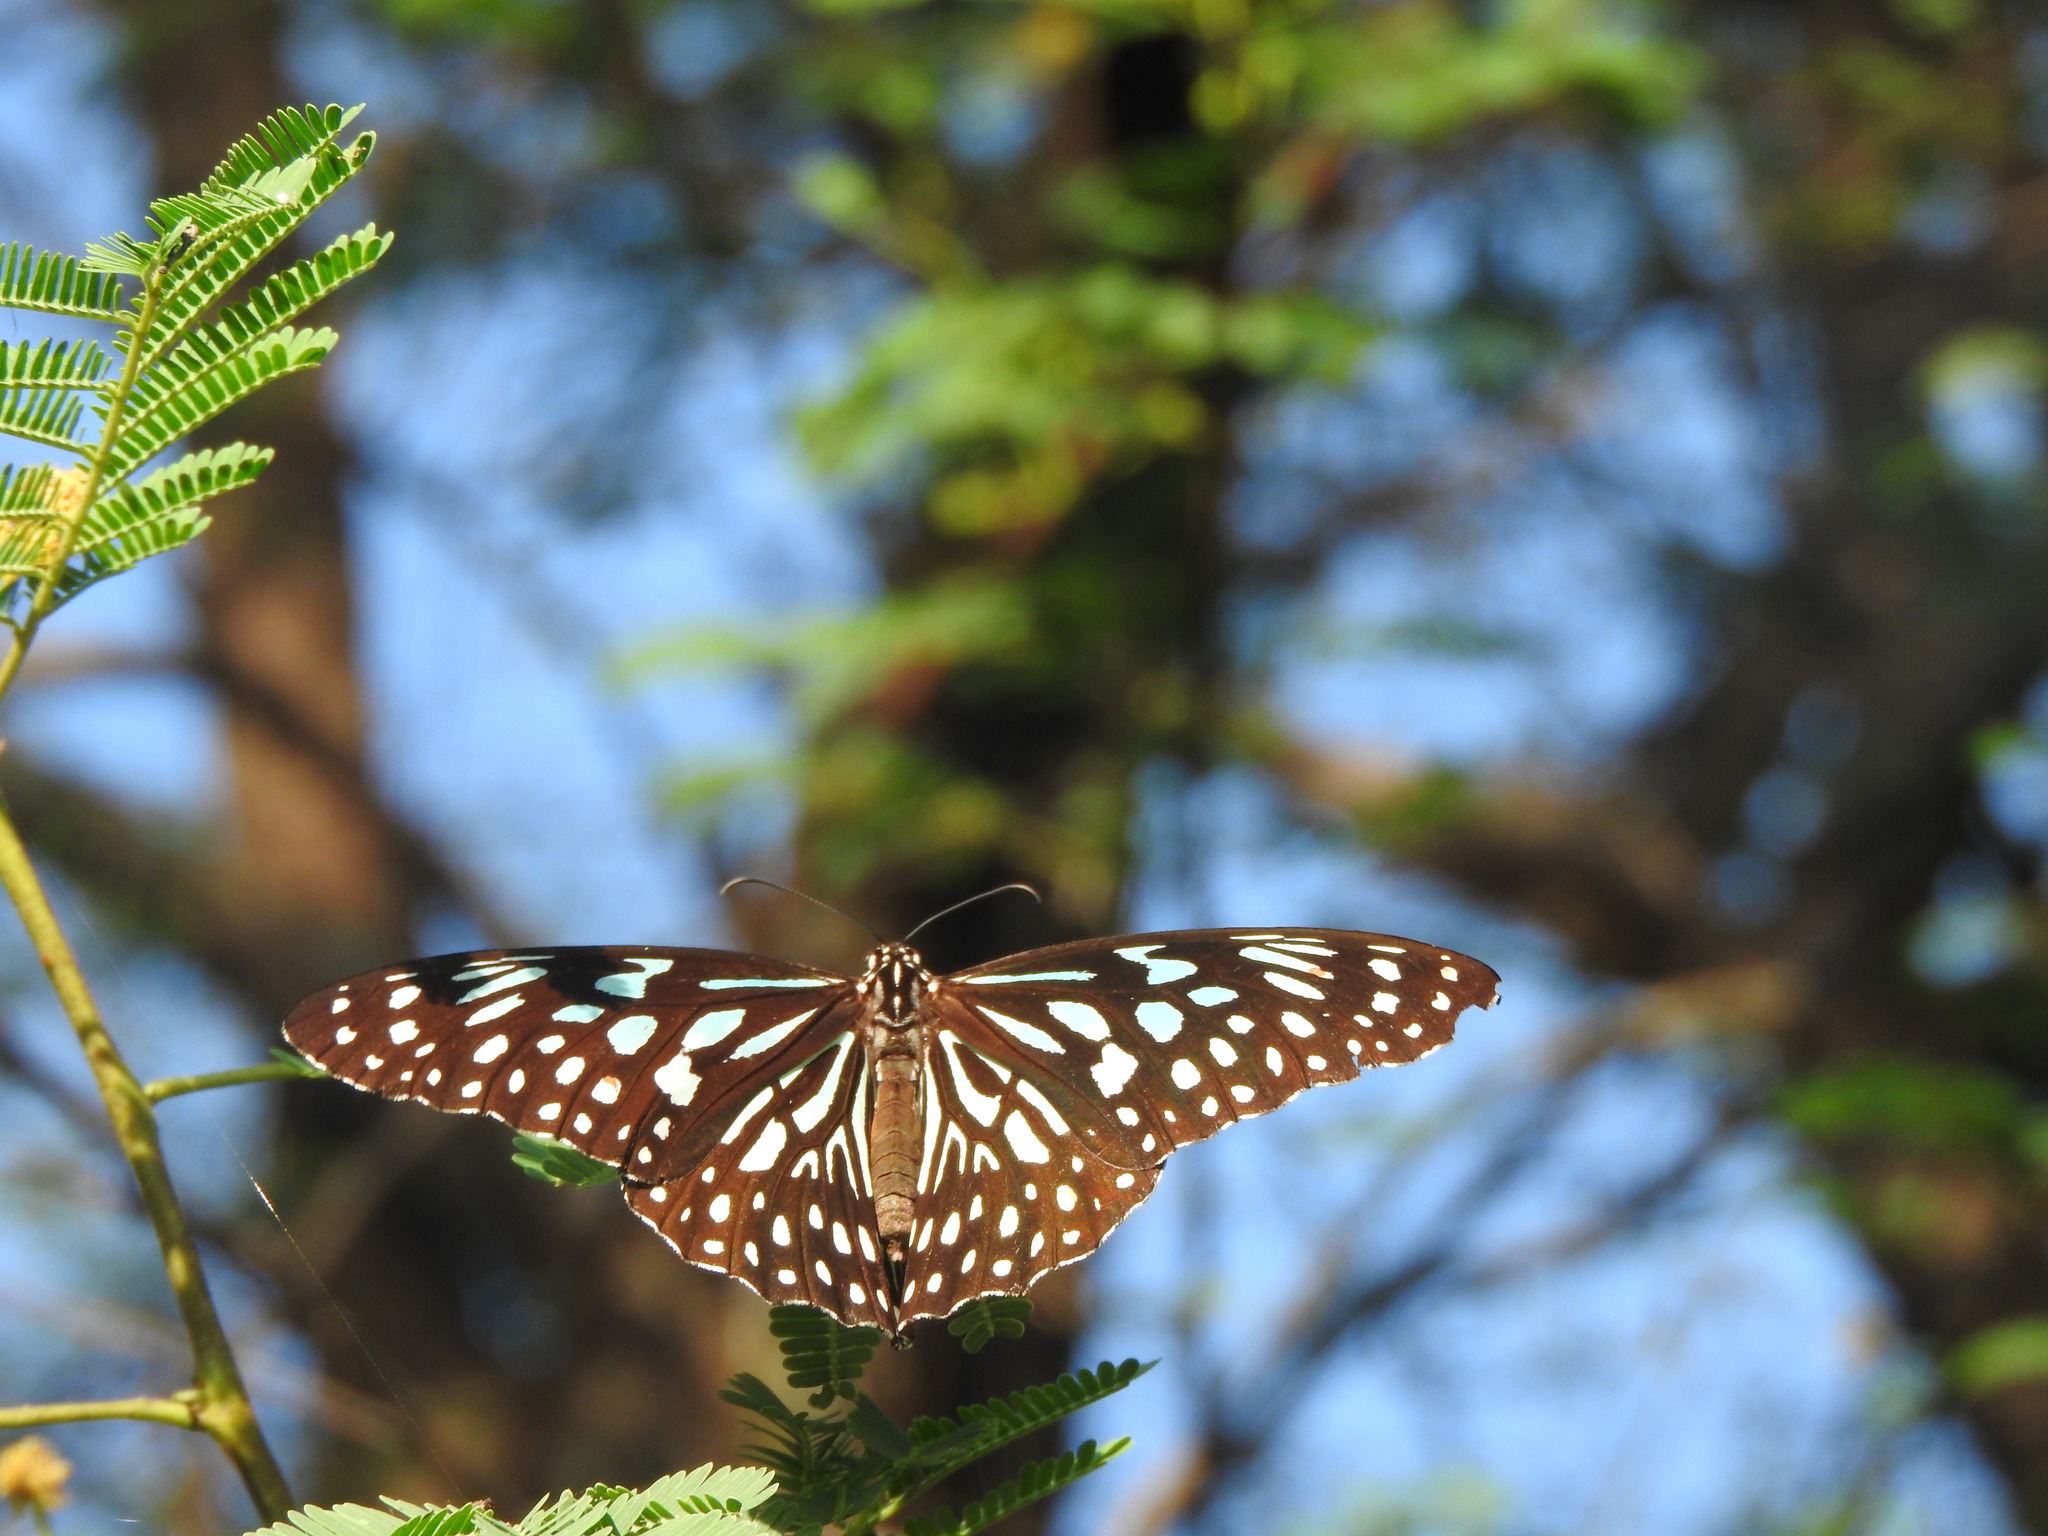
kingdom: Animalia
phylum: Arthropoda
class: Insecta
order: Lepidoptera
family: Nymphalidae
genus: Tirumala
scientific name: Tirumala septentrionis
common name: Dark blue tiger butterfly
